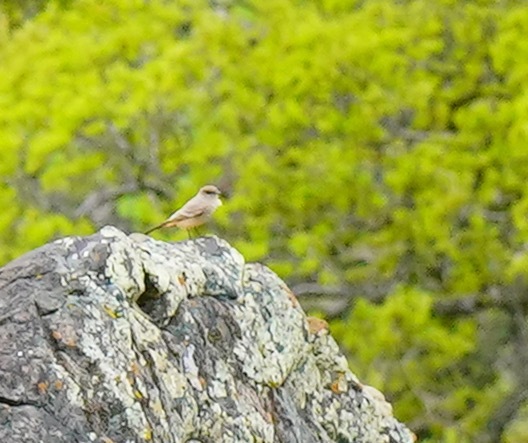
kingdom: Animalia
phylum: Chordata
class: Aves
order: Passeriformes
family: Tyrannidae
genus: Sayornis
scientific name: Sayornis saya
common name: Say's phoebe
